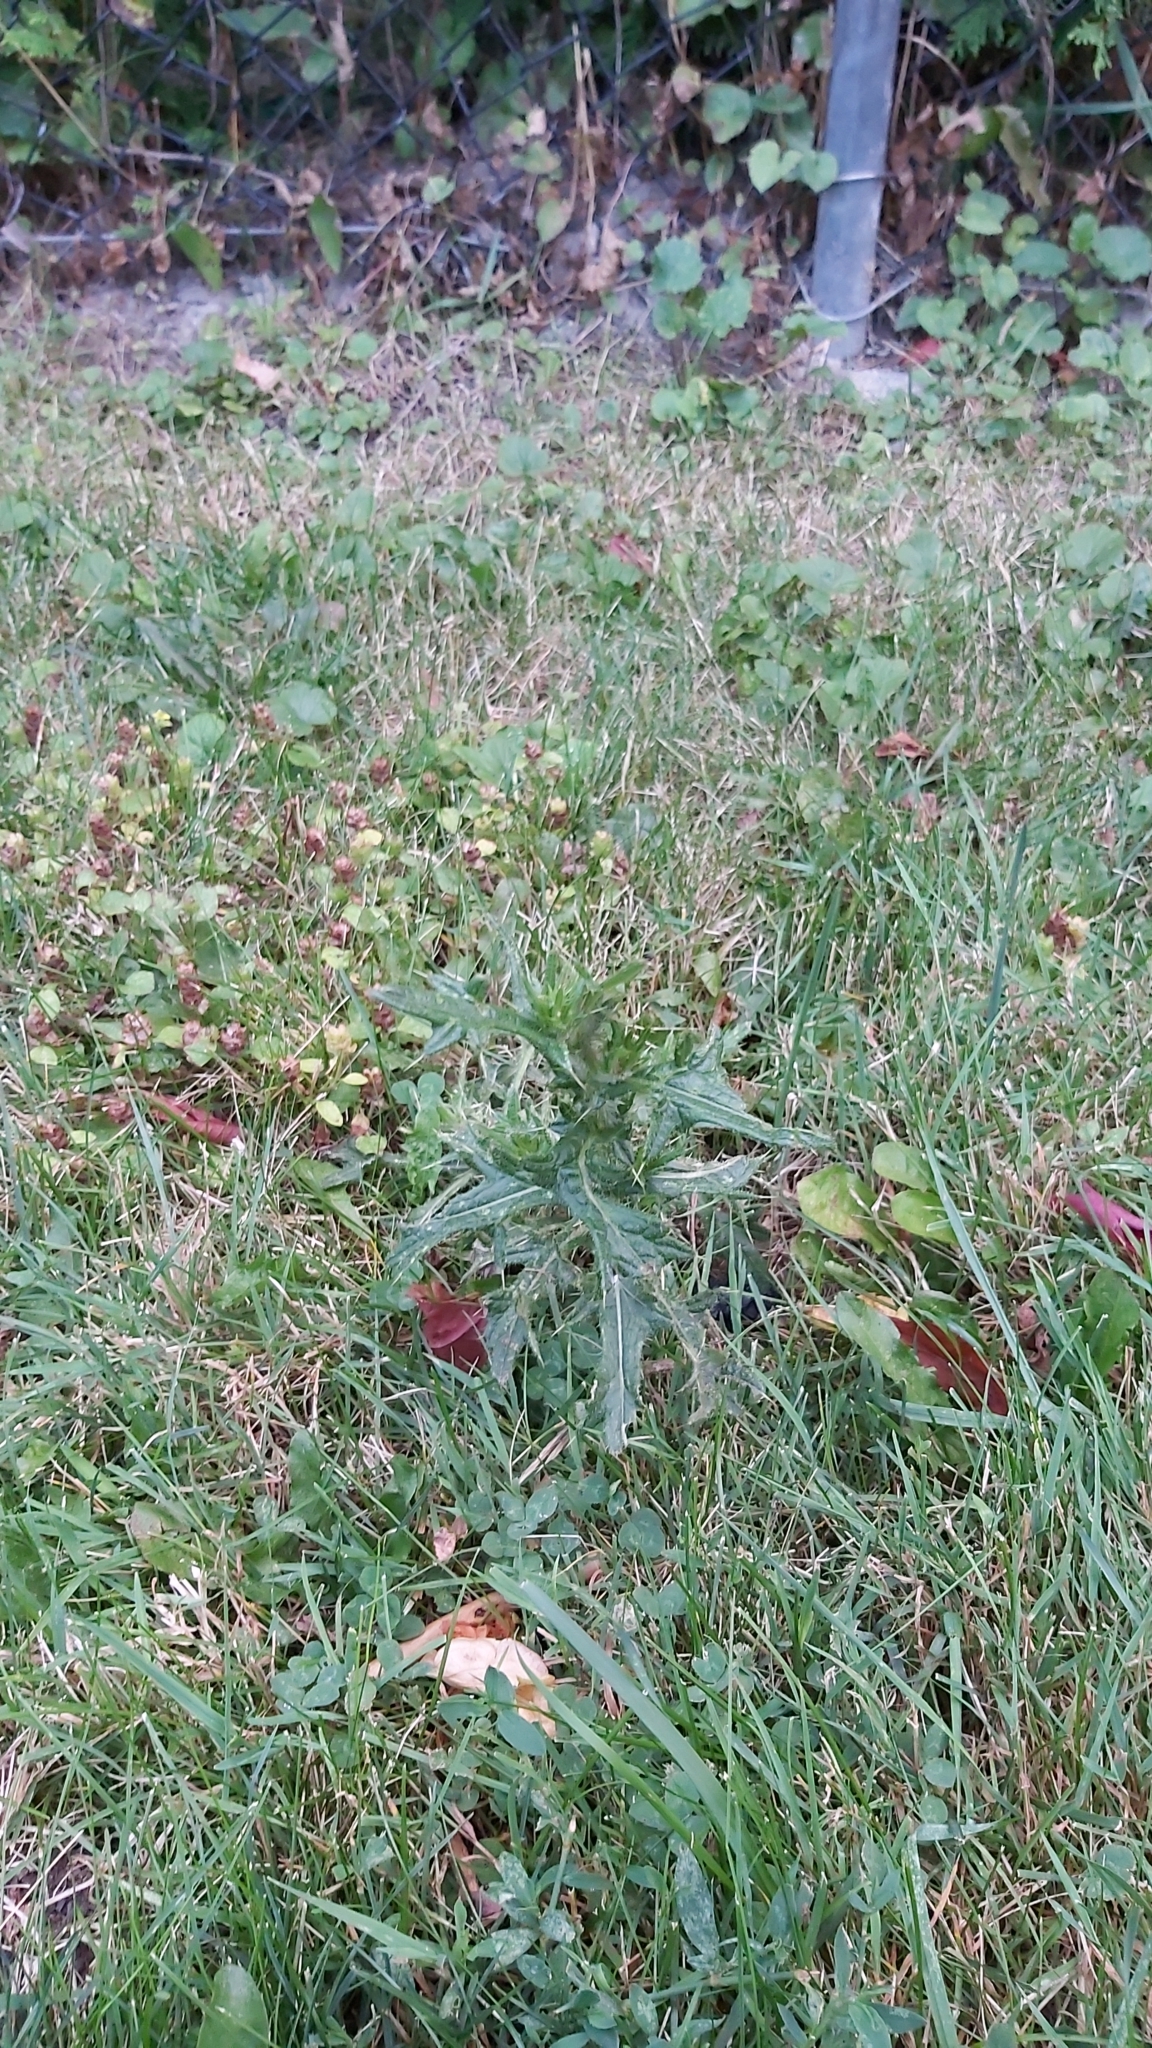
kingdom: Plantae
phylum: Tracheophyta
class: Magnoliopsida
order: Asterales
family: Asteraceae
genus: Cirsium
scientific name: Cirsium vulgare
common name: Bull thistle
